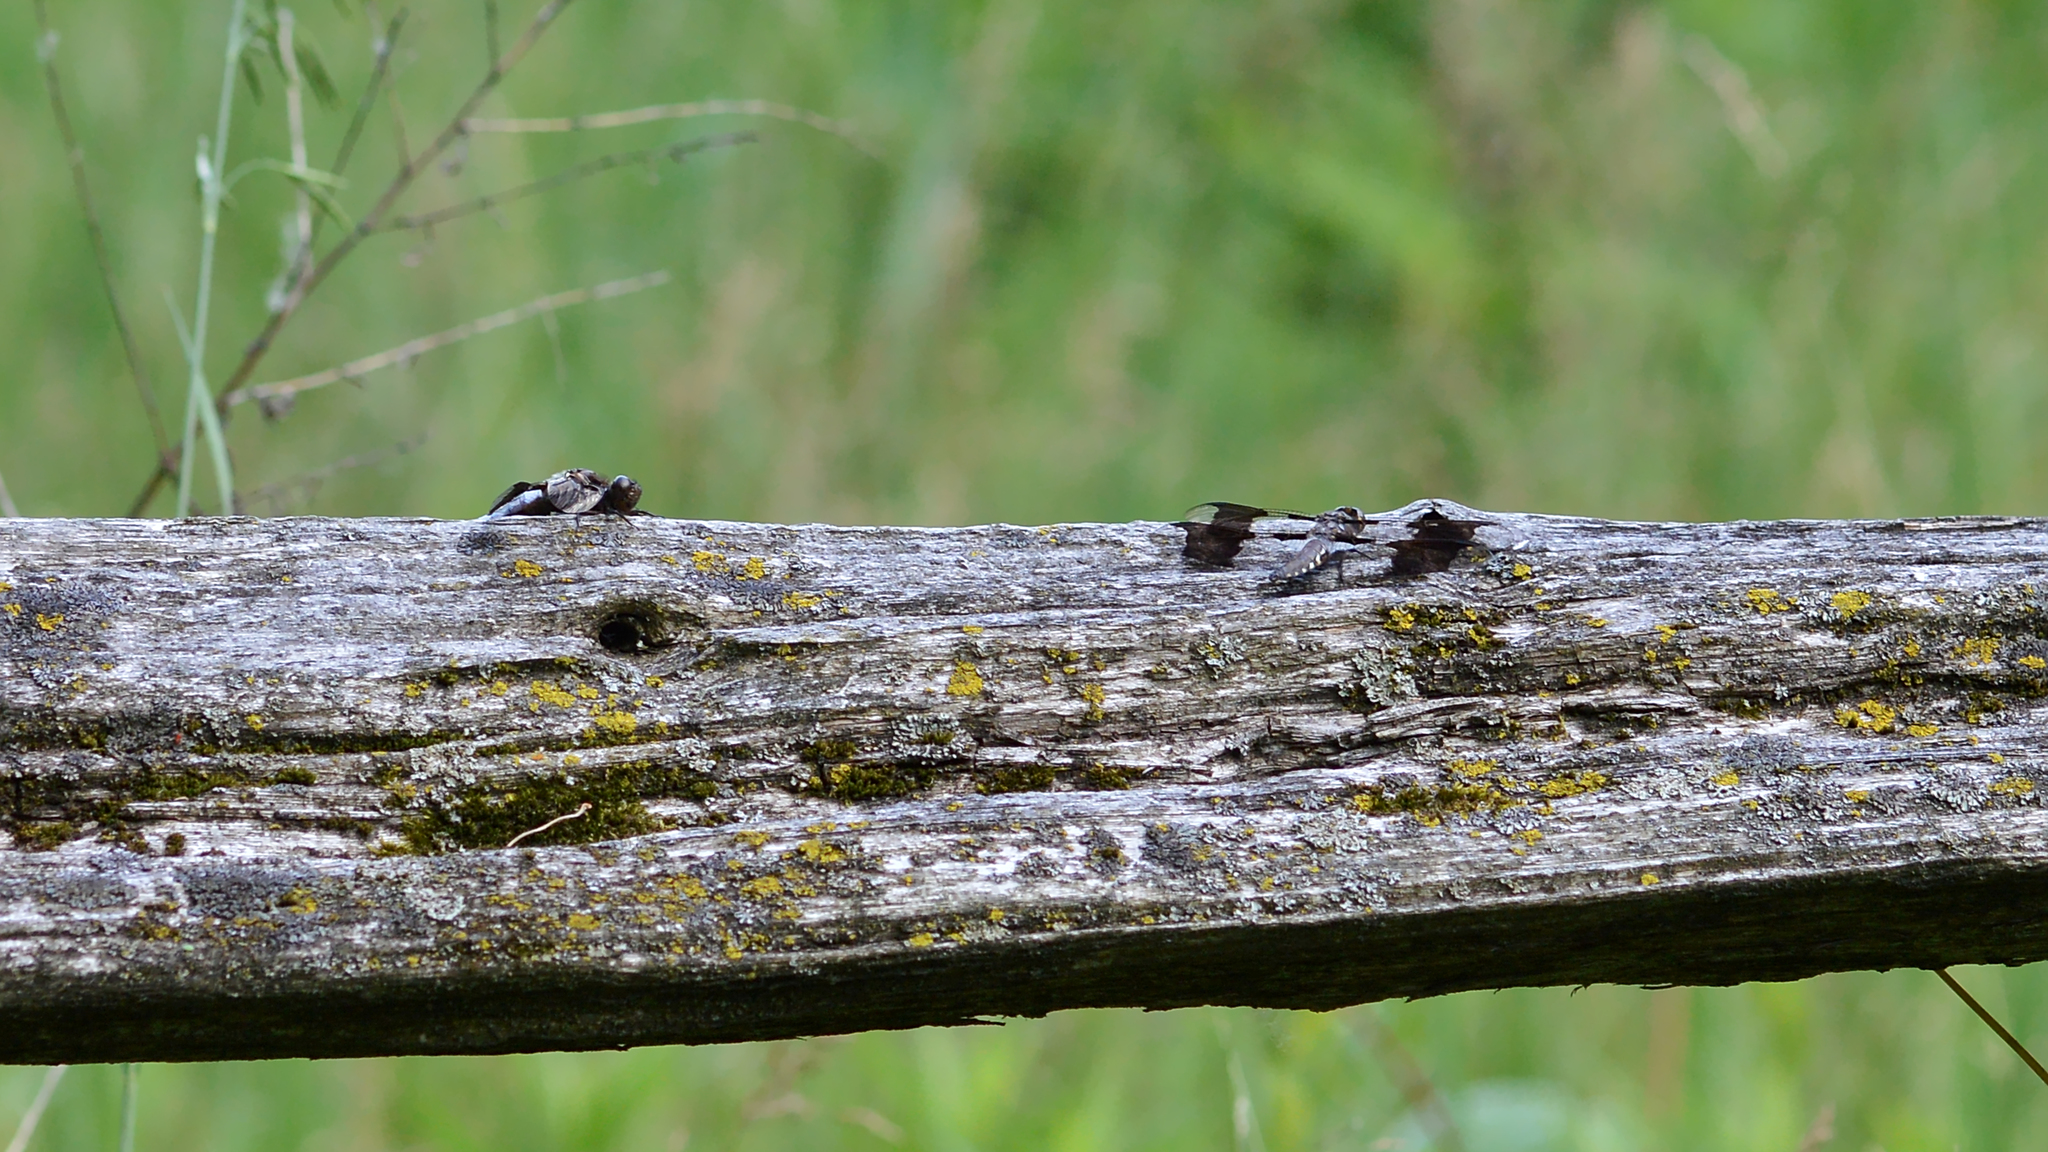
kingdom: Animalia
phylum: Arthropoda
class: Insecta
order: Odonata
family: Libellulidae
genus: Plathemis
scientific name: Plathemis lydia
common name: Common whitetail
